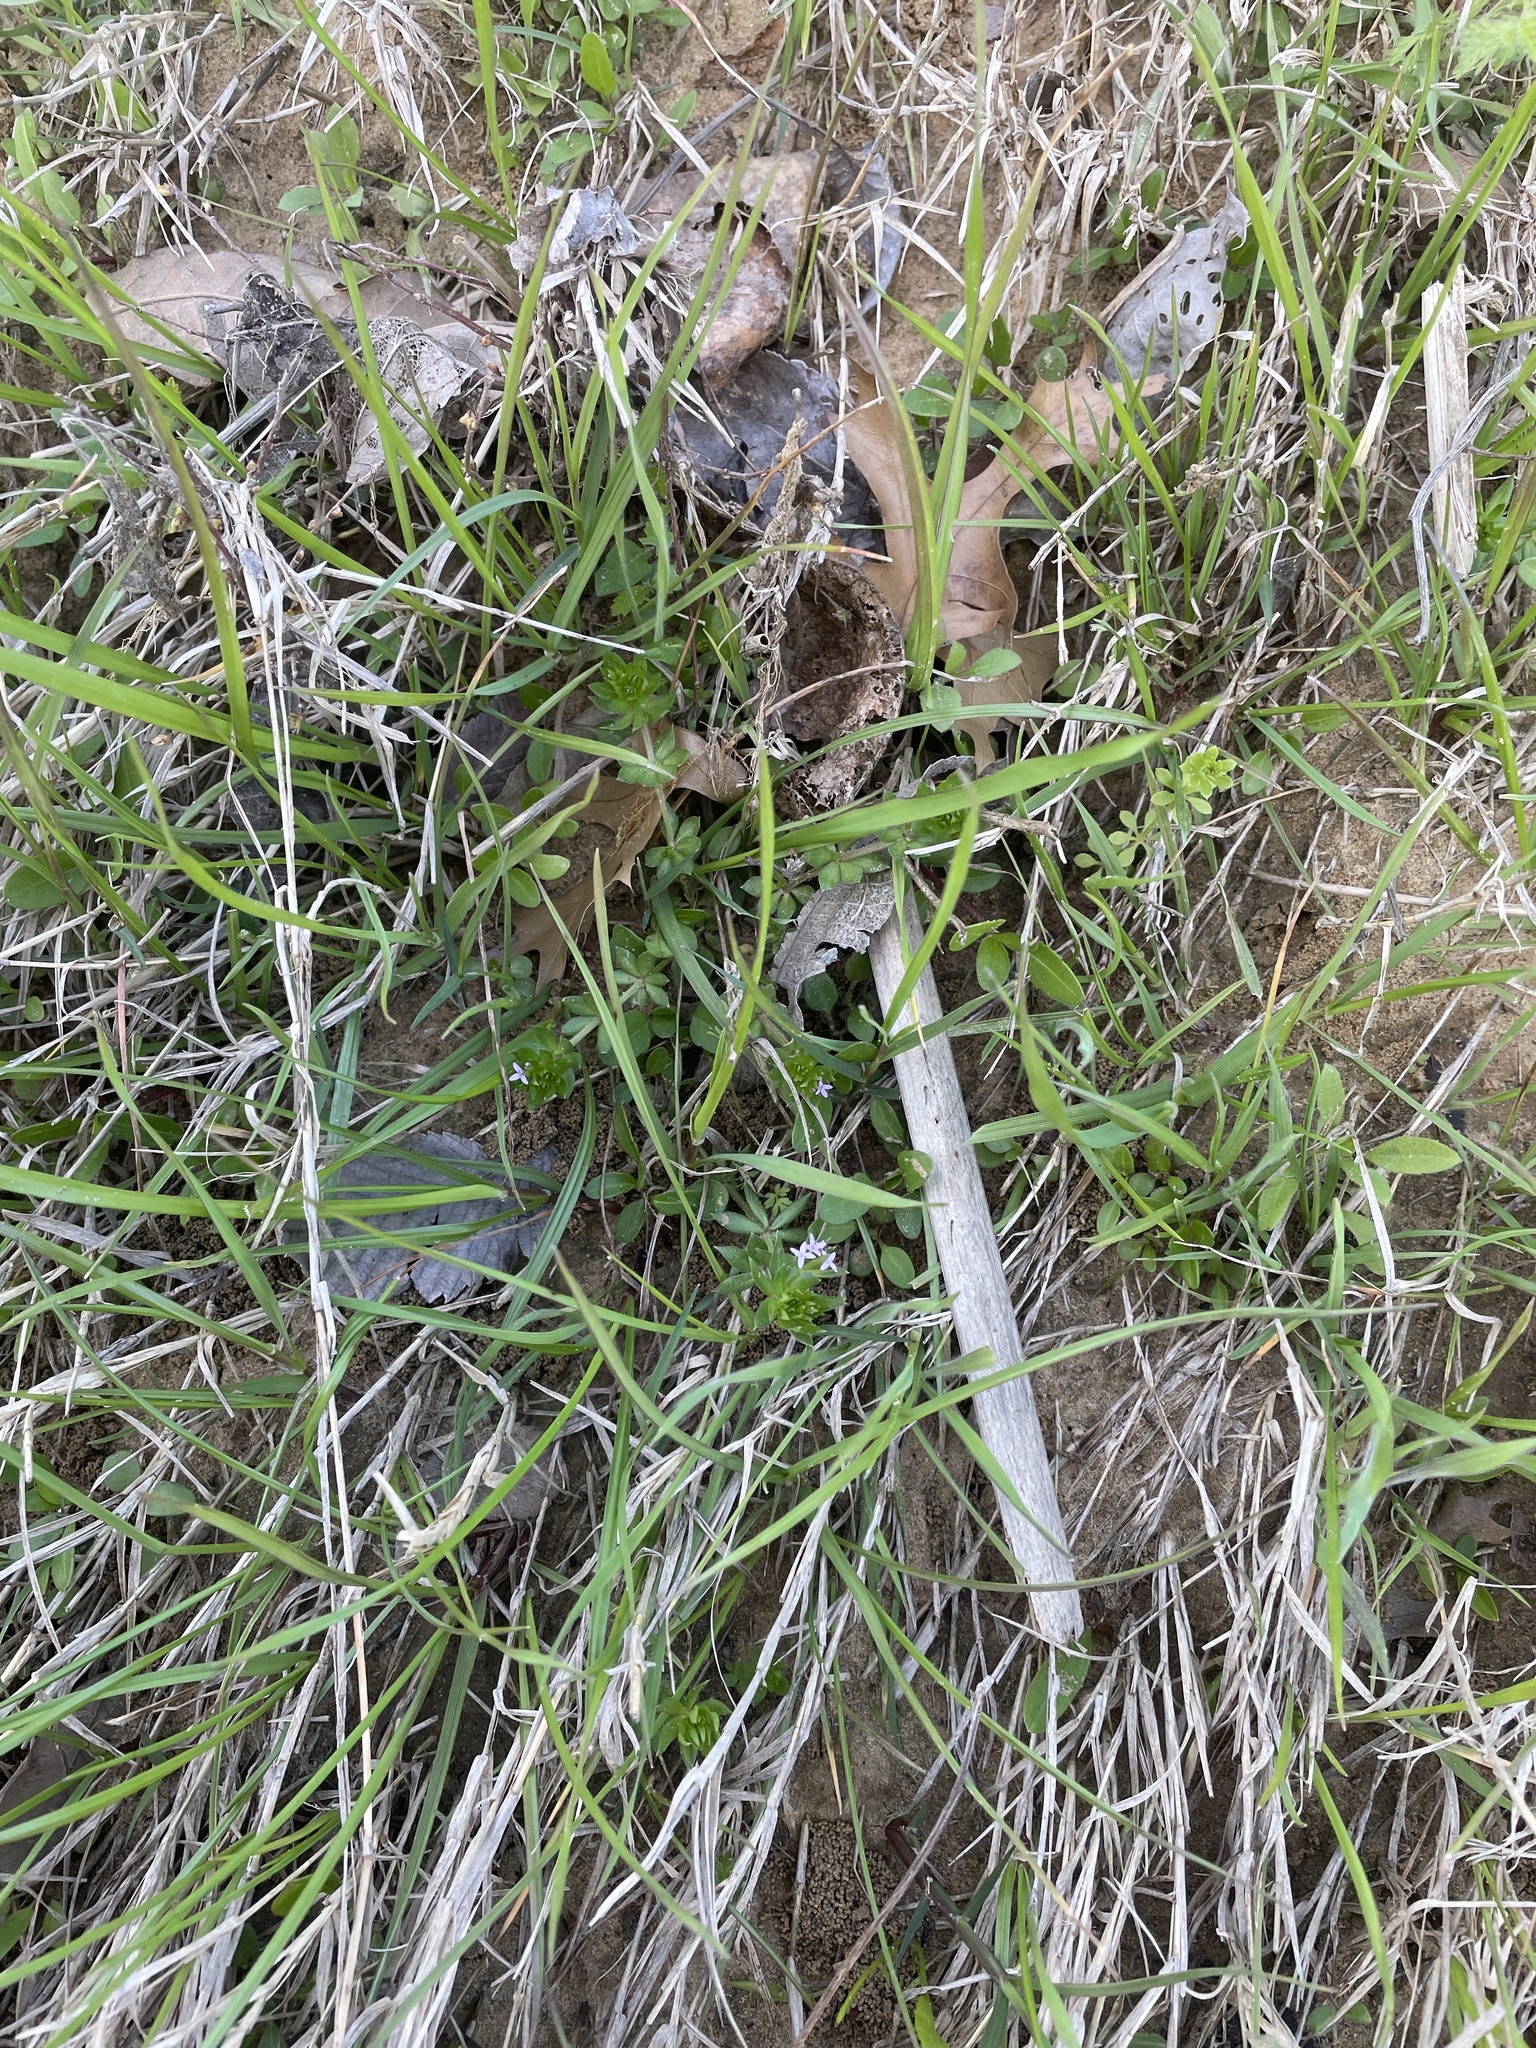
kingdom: Plantae
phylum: Tracheophyta
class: Magnoliopsida
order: Gentianales
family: Rubiaceae
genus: Sherardia
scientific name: Sherardia arvensis
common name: Field madder
